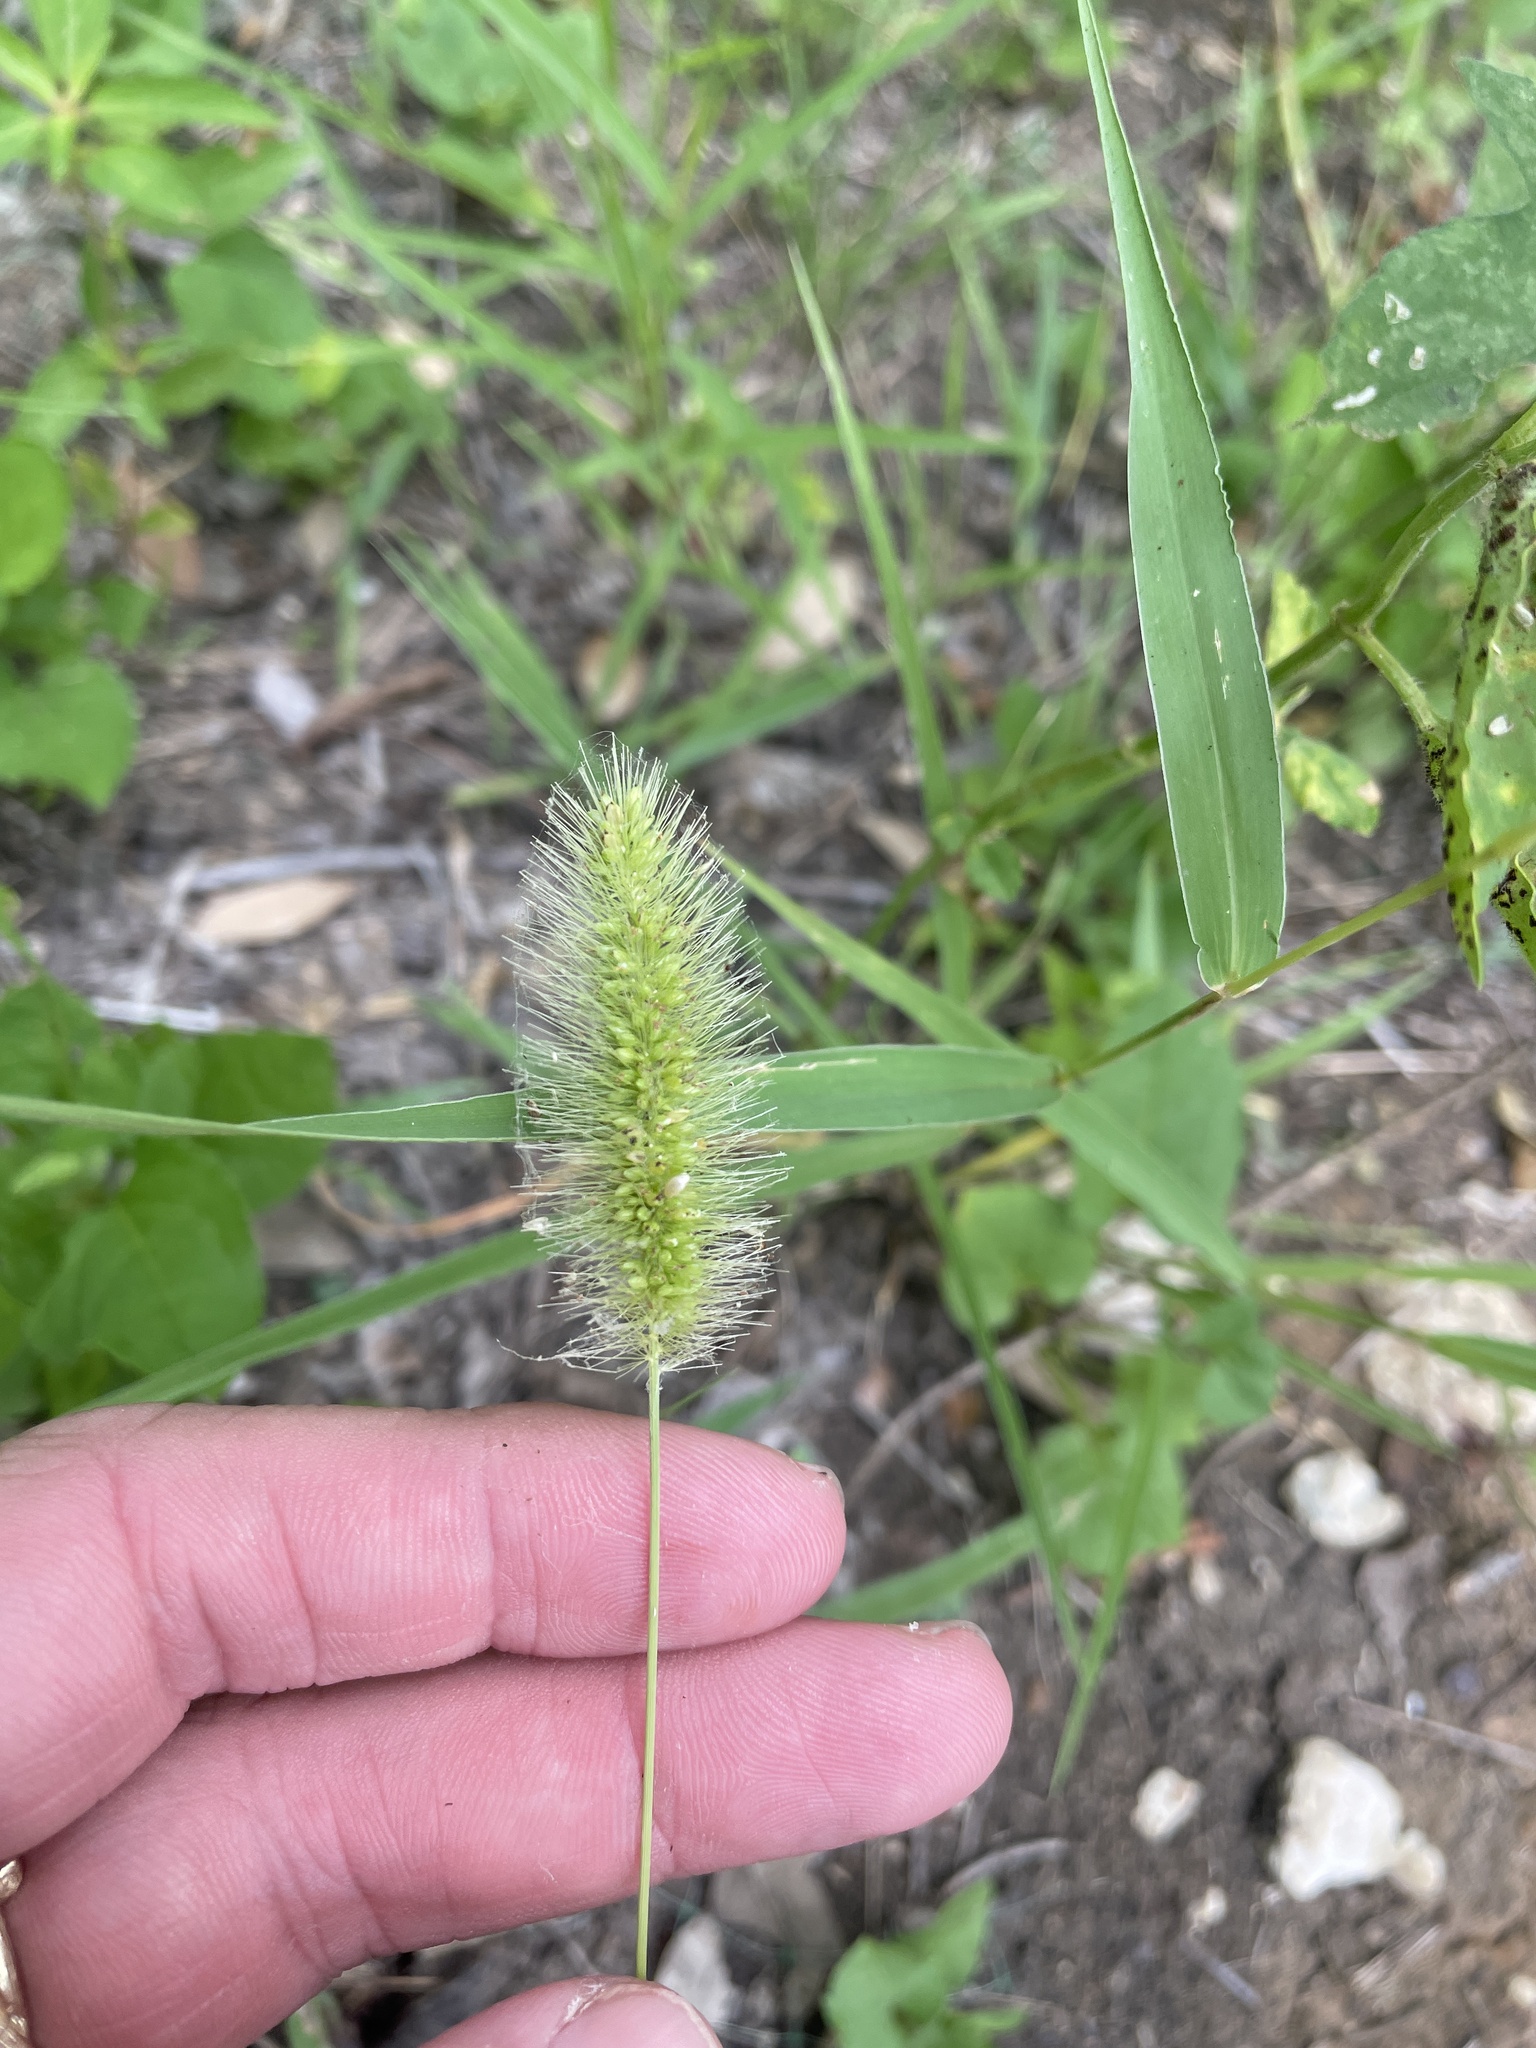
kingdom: Plantae
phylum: Tracheophyta
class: Liliopsida
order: Poales
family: Poaceae
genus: Setaria
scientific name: Setaria viridis
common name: Green bristlegrass
